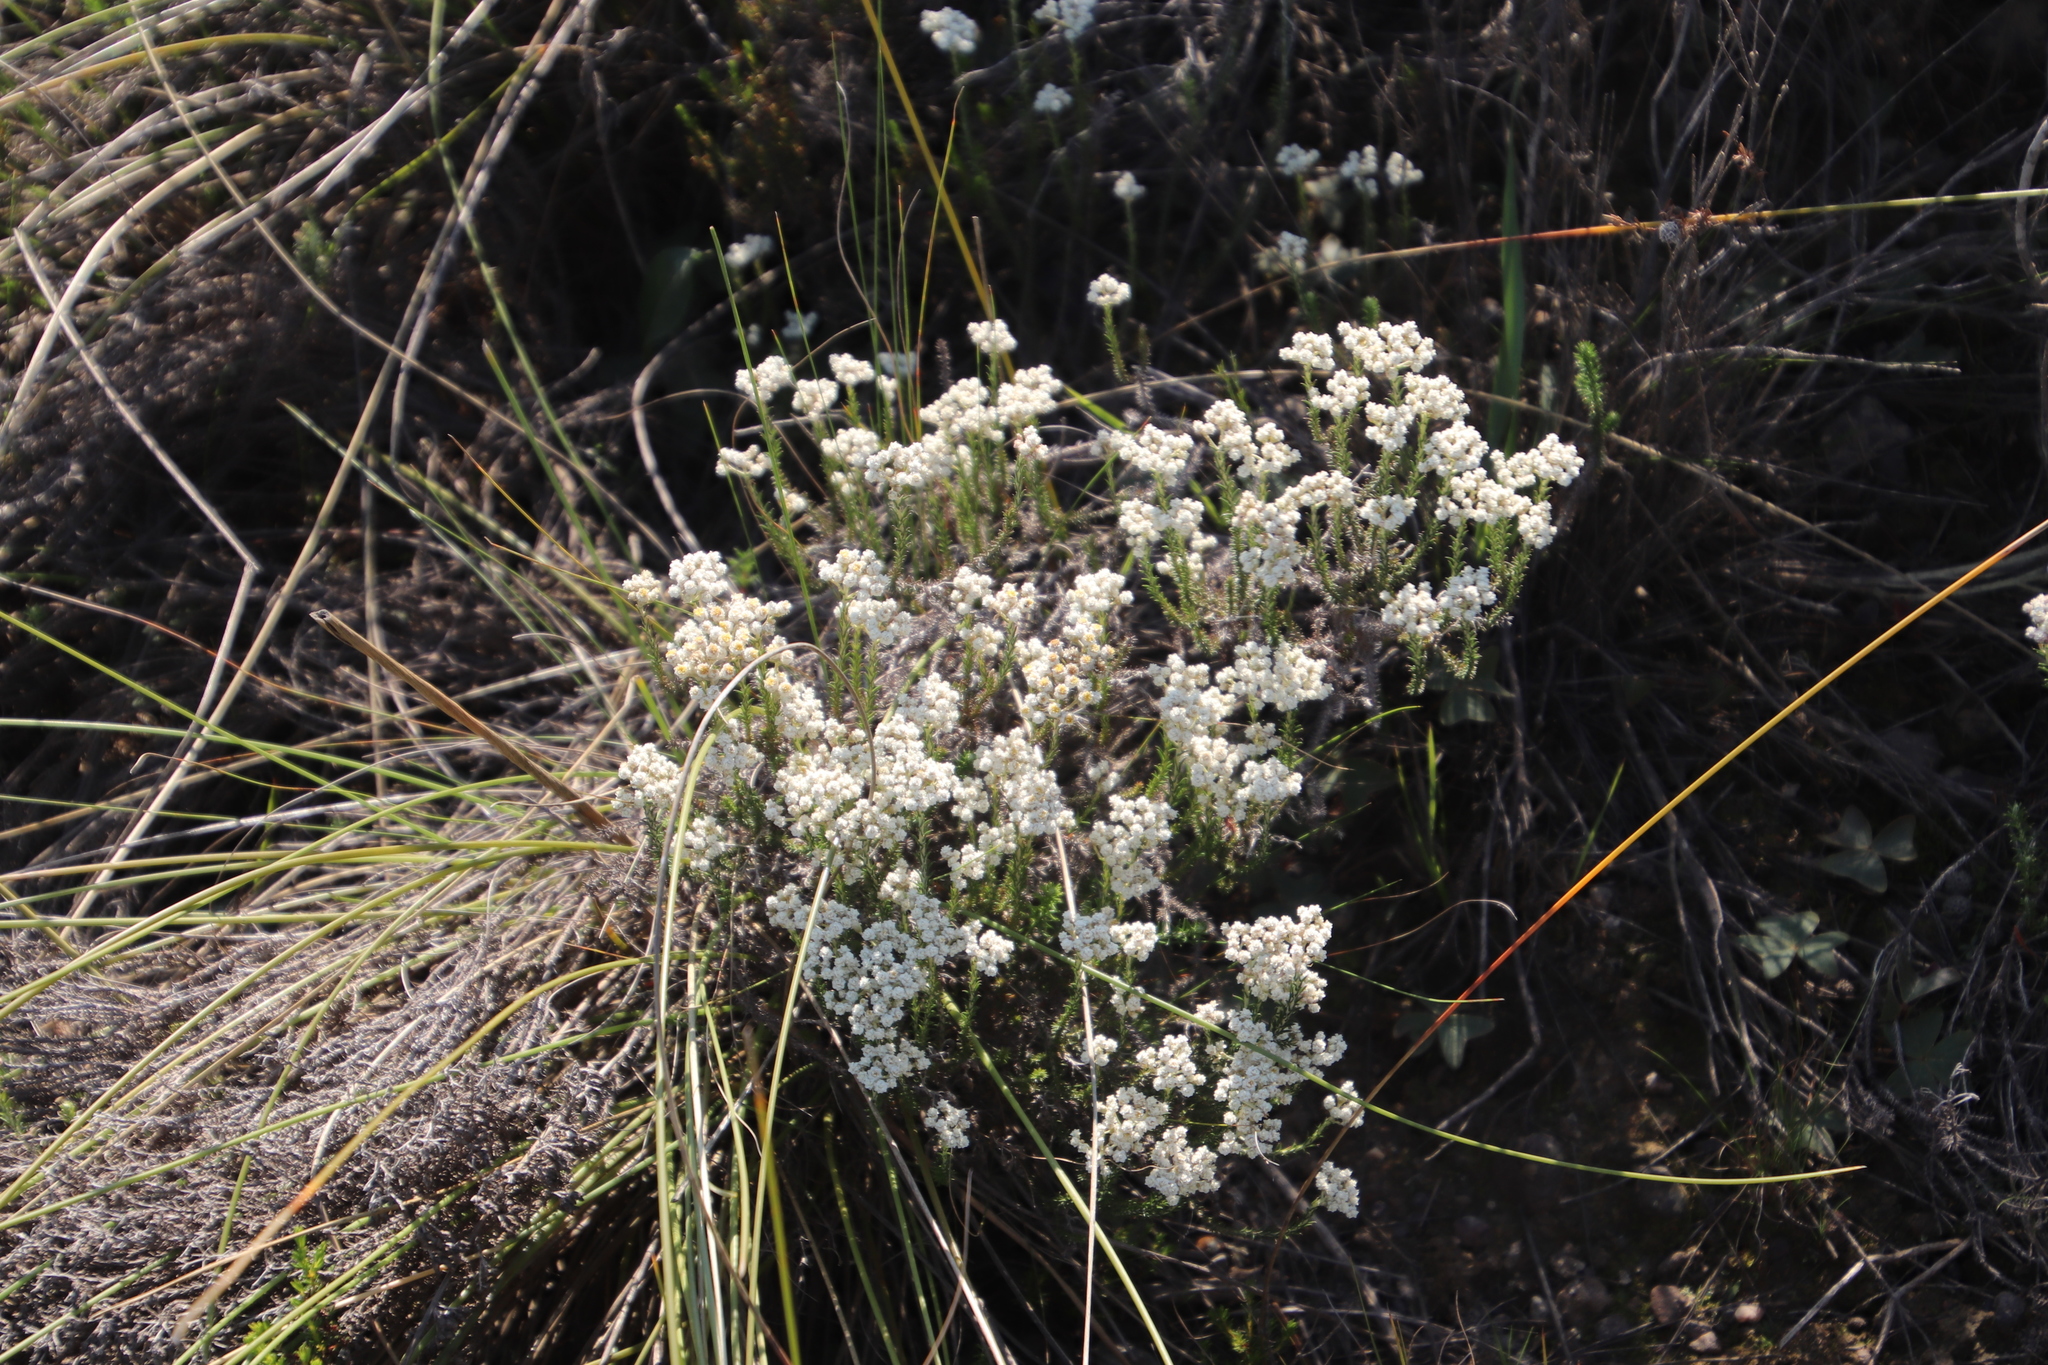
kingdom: Plantae
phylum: Tracheophyta
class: Magnoliopsida
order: Asterales
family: Asteraceae
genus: Helichrysum
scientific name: Helichrysum teretifolium
